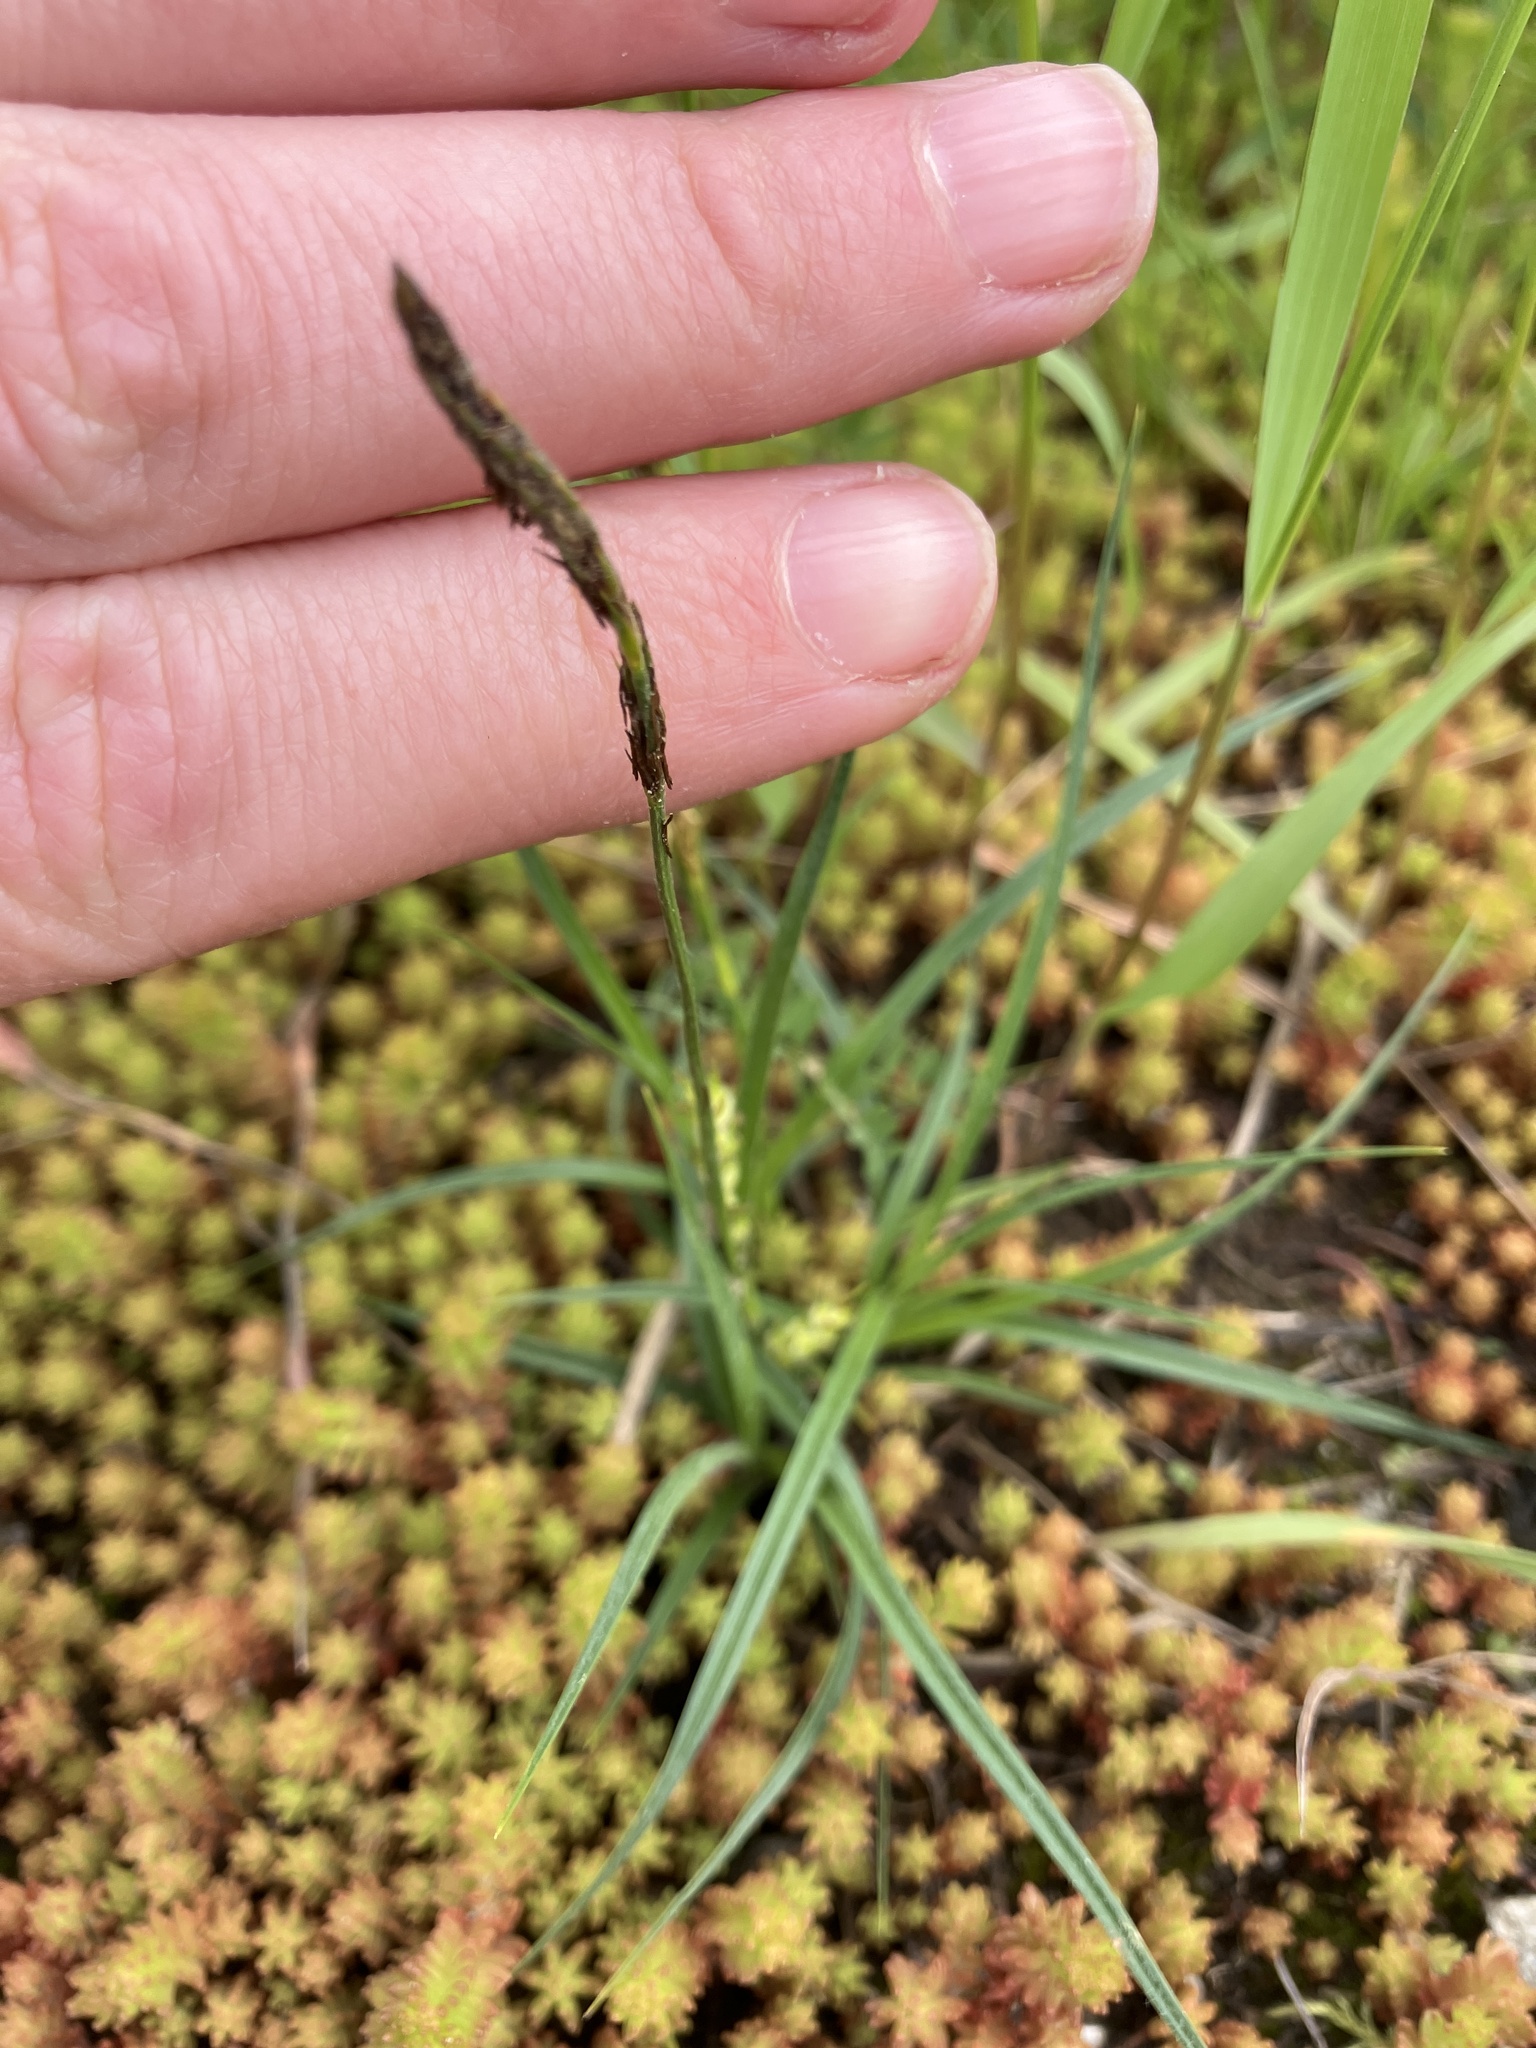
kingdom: Plantae
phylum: Tracheophyta
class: Liliopsida
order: Poales
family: Cyperaceae
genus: Carex
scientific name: Carex hirta
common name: Hairy sedge
